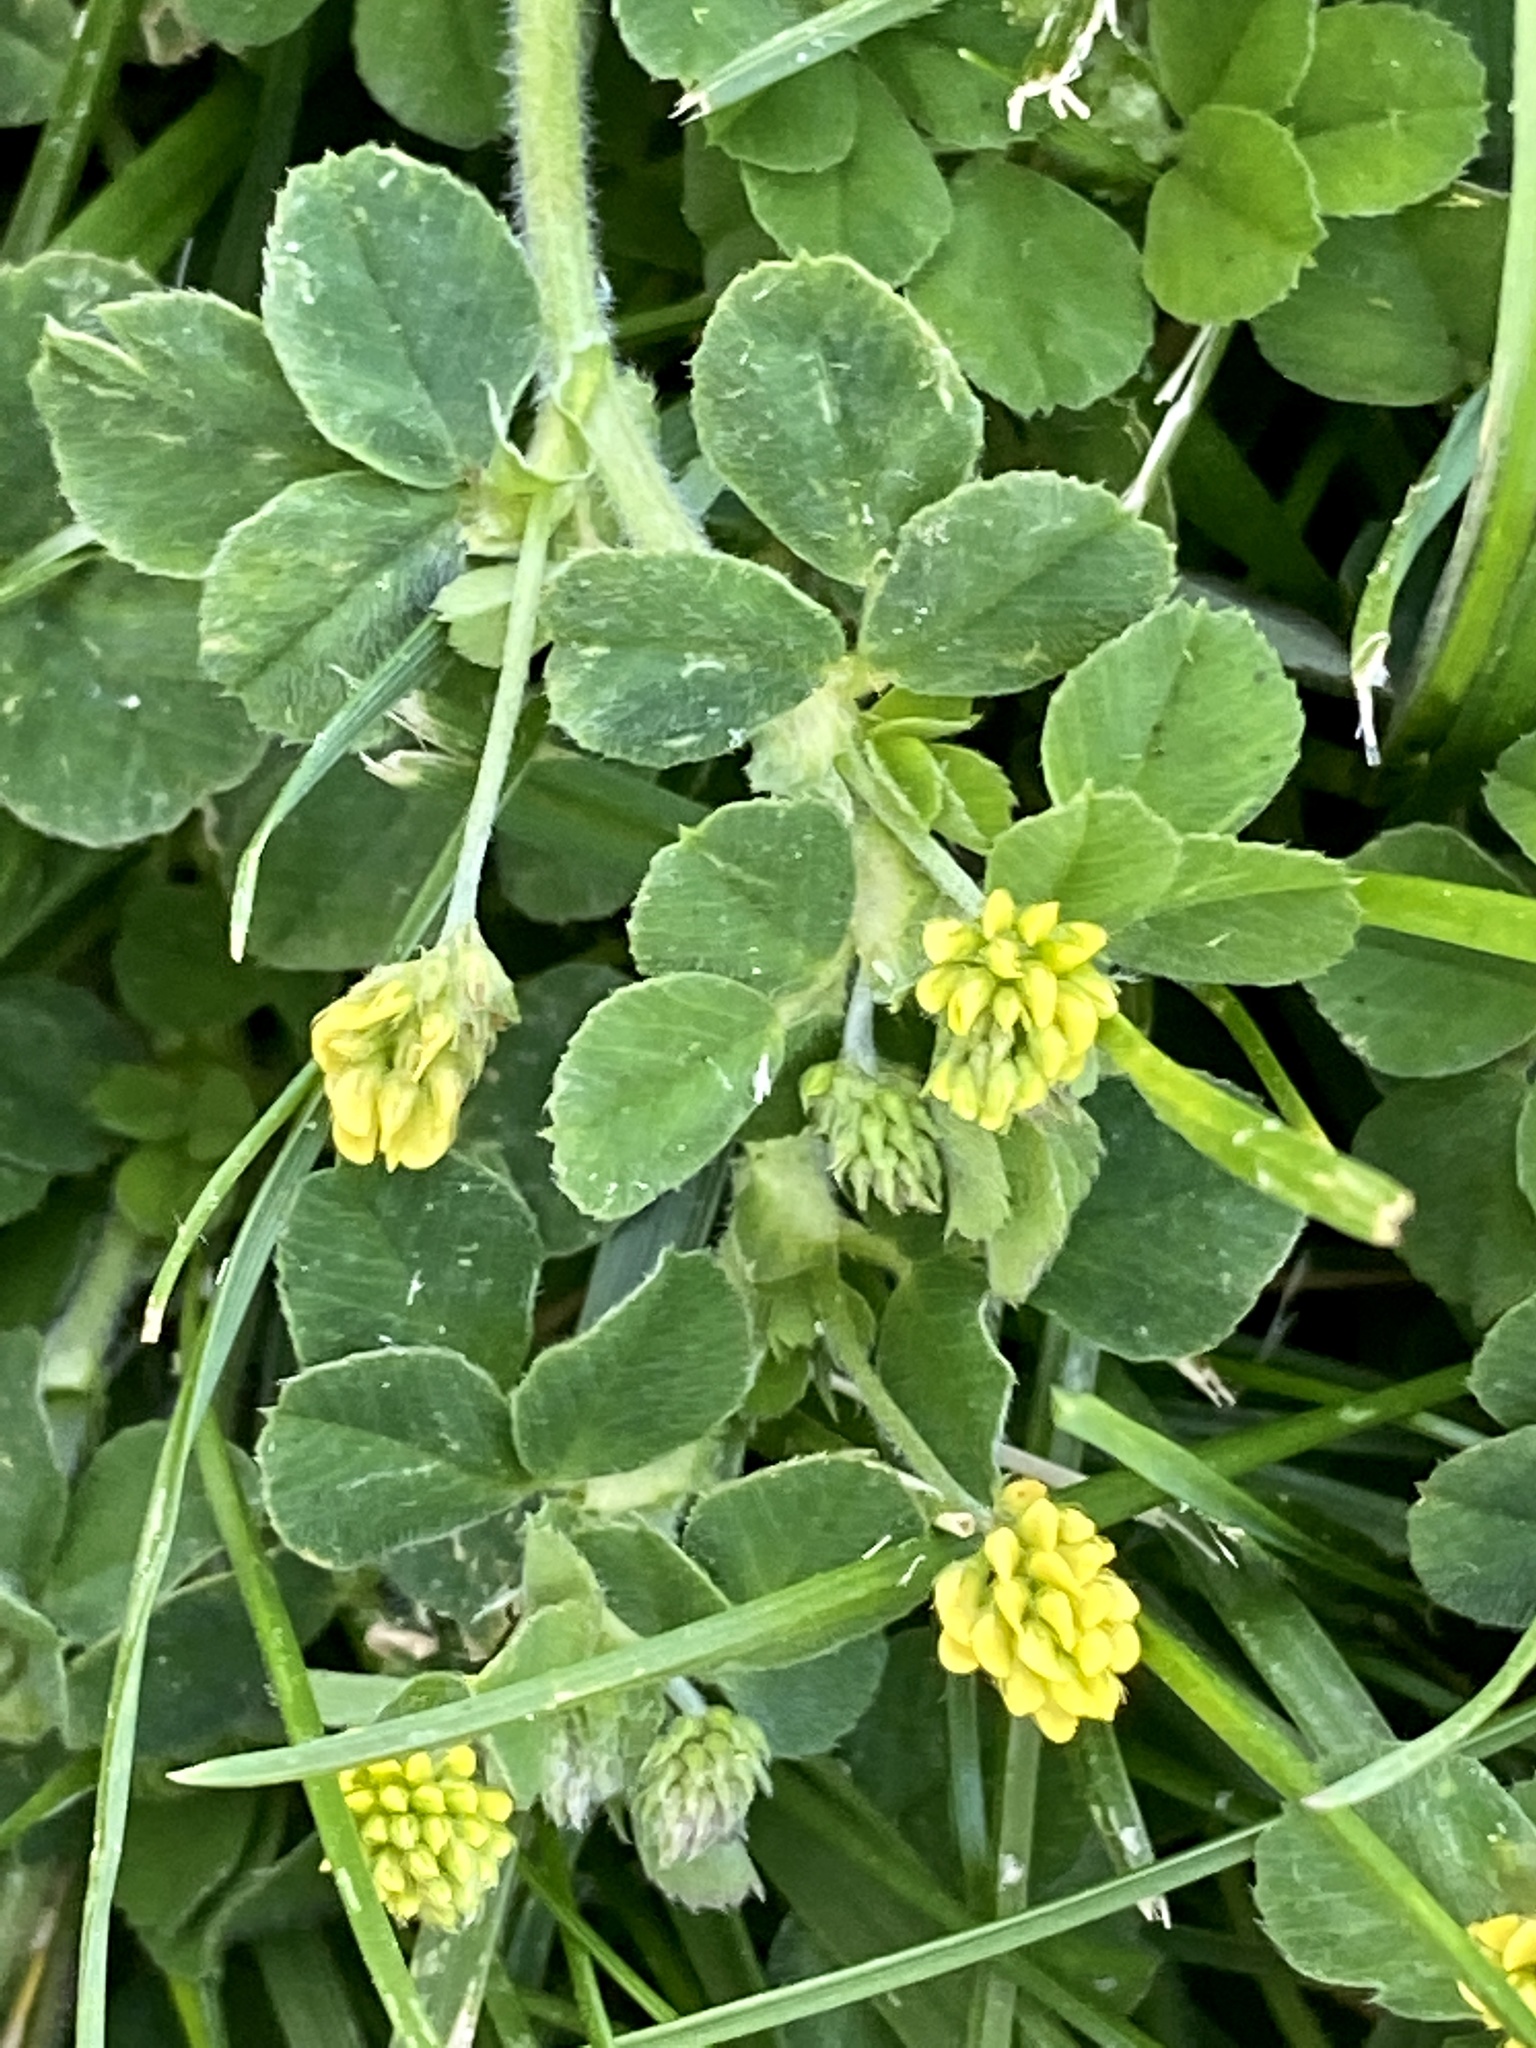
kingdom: Plantae
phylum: Tracheophyta
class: Magnoliopsida
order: Fabales
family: Fabaceae
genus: Medicago
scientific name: Medicago lupulina
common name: Black medick
